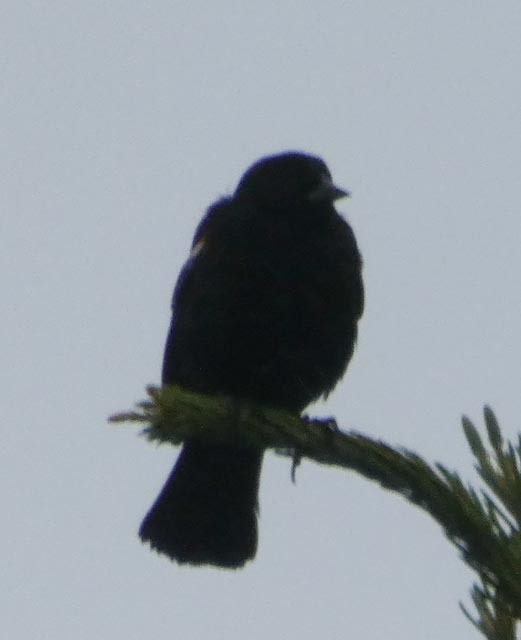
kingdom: Animalia
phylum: Chordata
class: Aves
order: Passeriformes
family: Icteridae
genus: Agelaius
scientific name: Agelaius phoeniceus
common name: Red-winged blackbird
